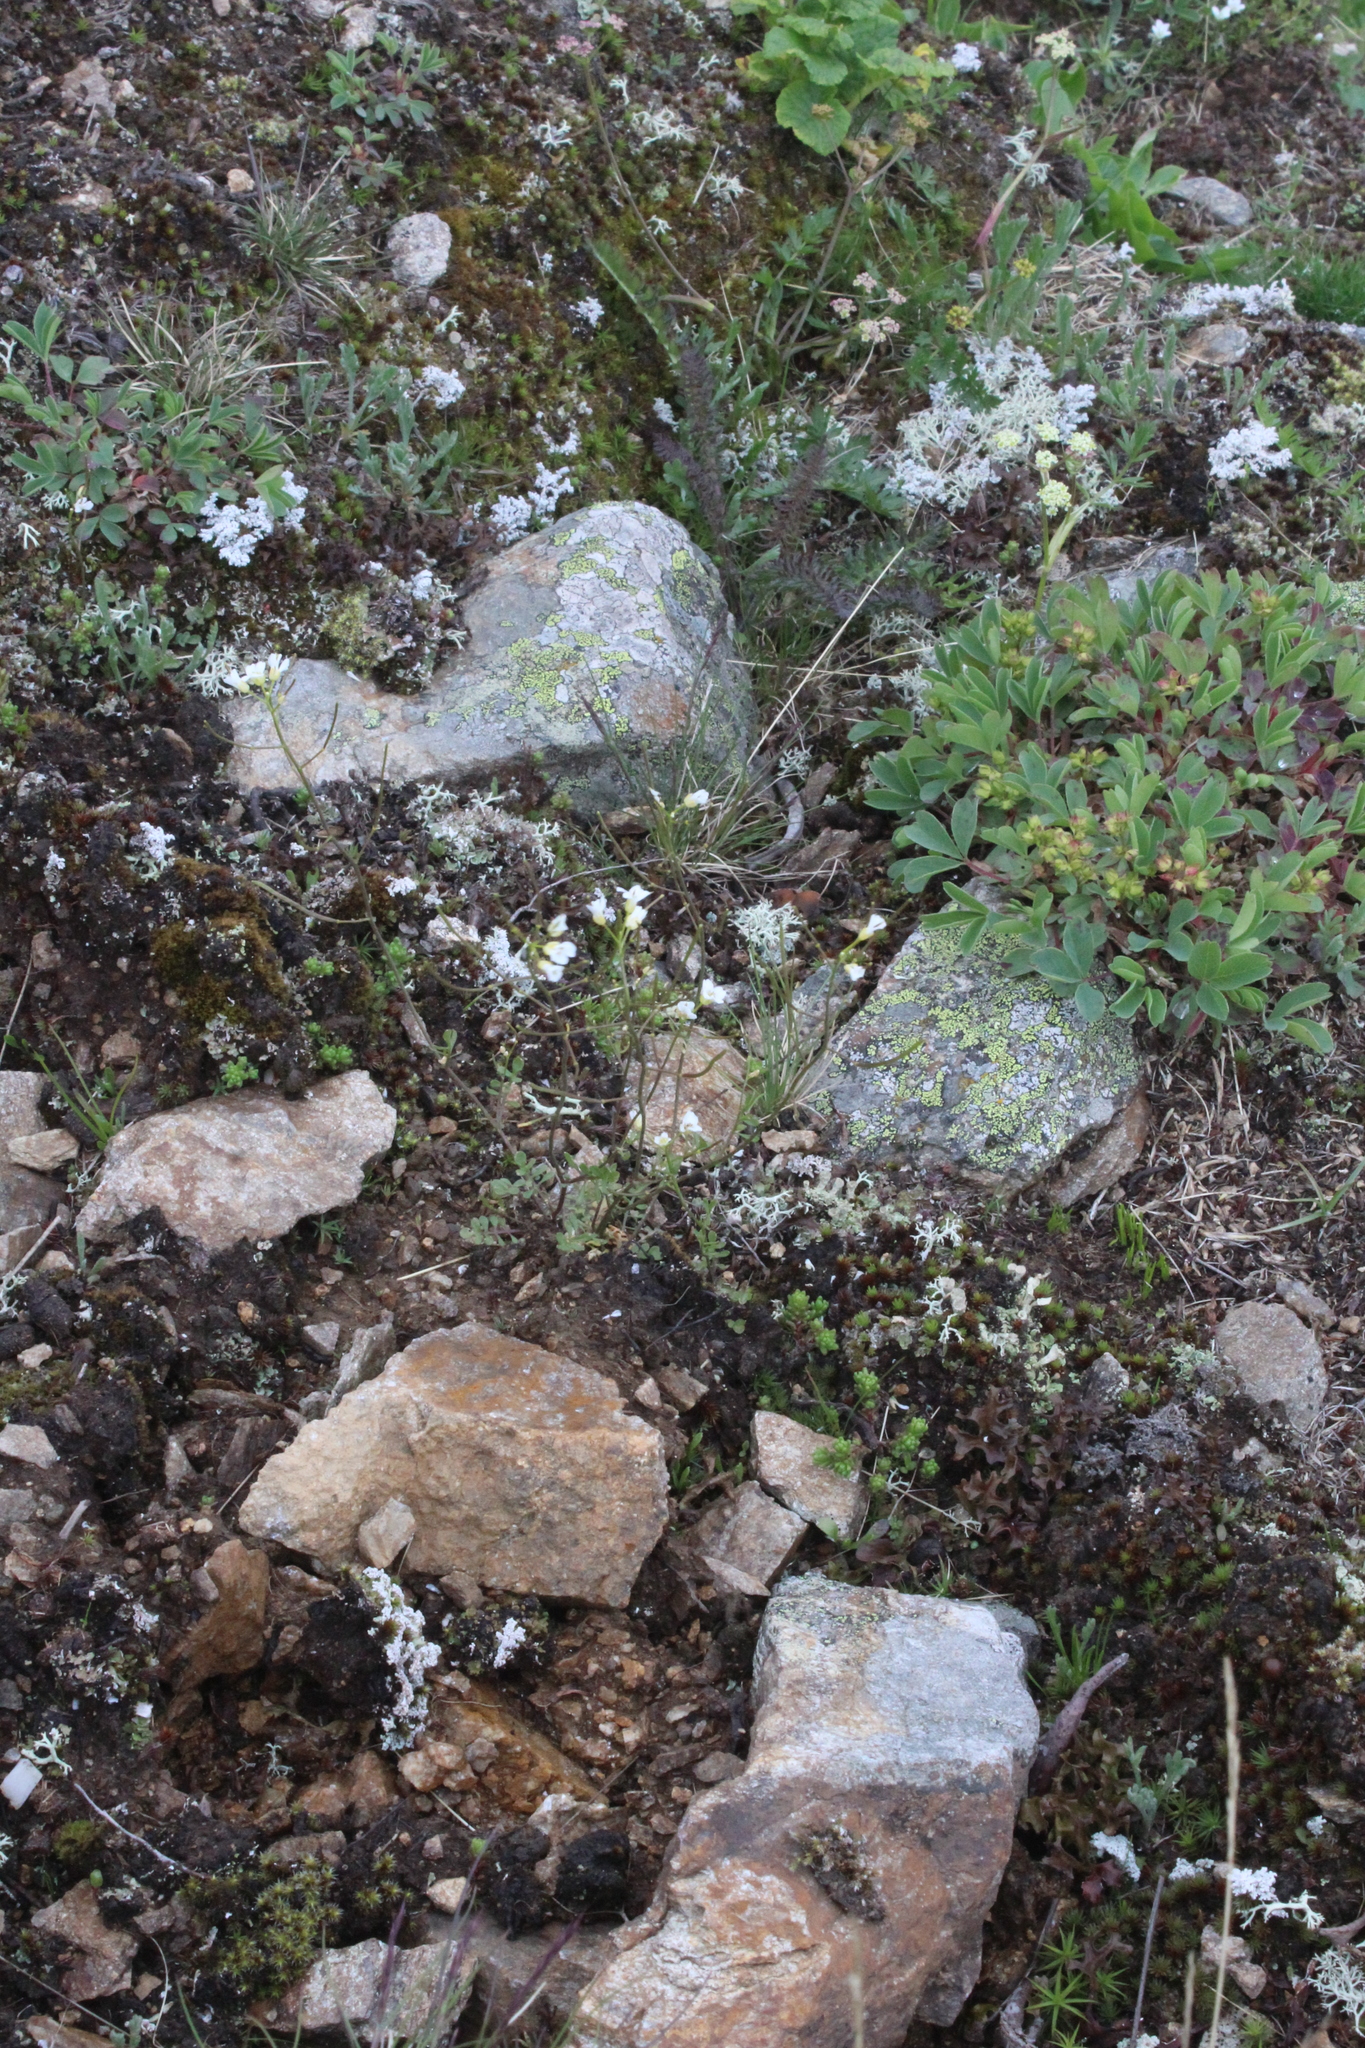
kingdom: Plantae
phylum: Tracheophyta
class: Magnoliopsida
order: Brassicales
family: Brassicaceae
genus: Murbeckiella
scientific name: Murbeckiella huetii
